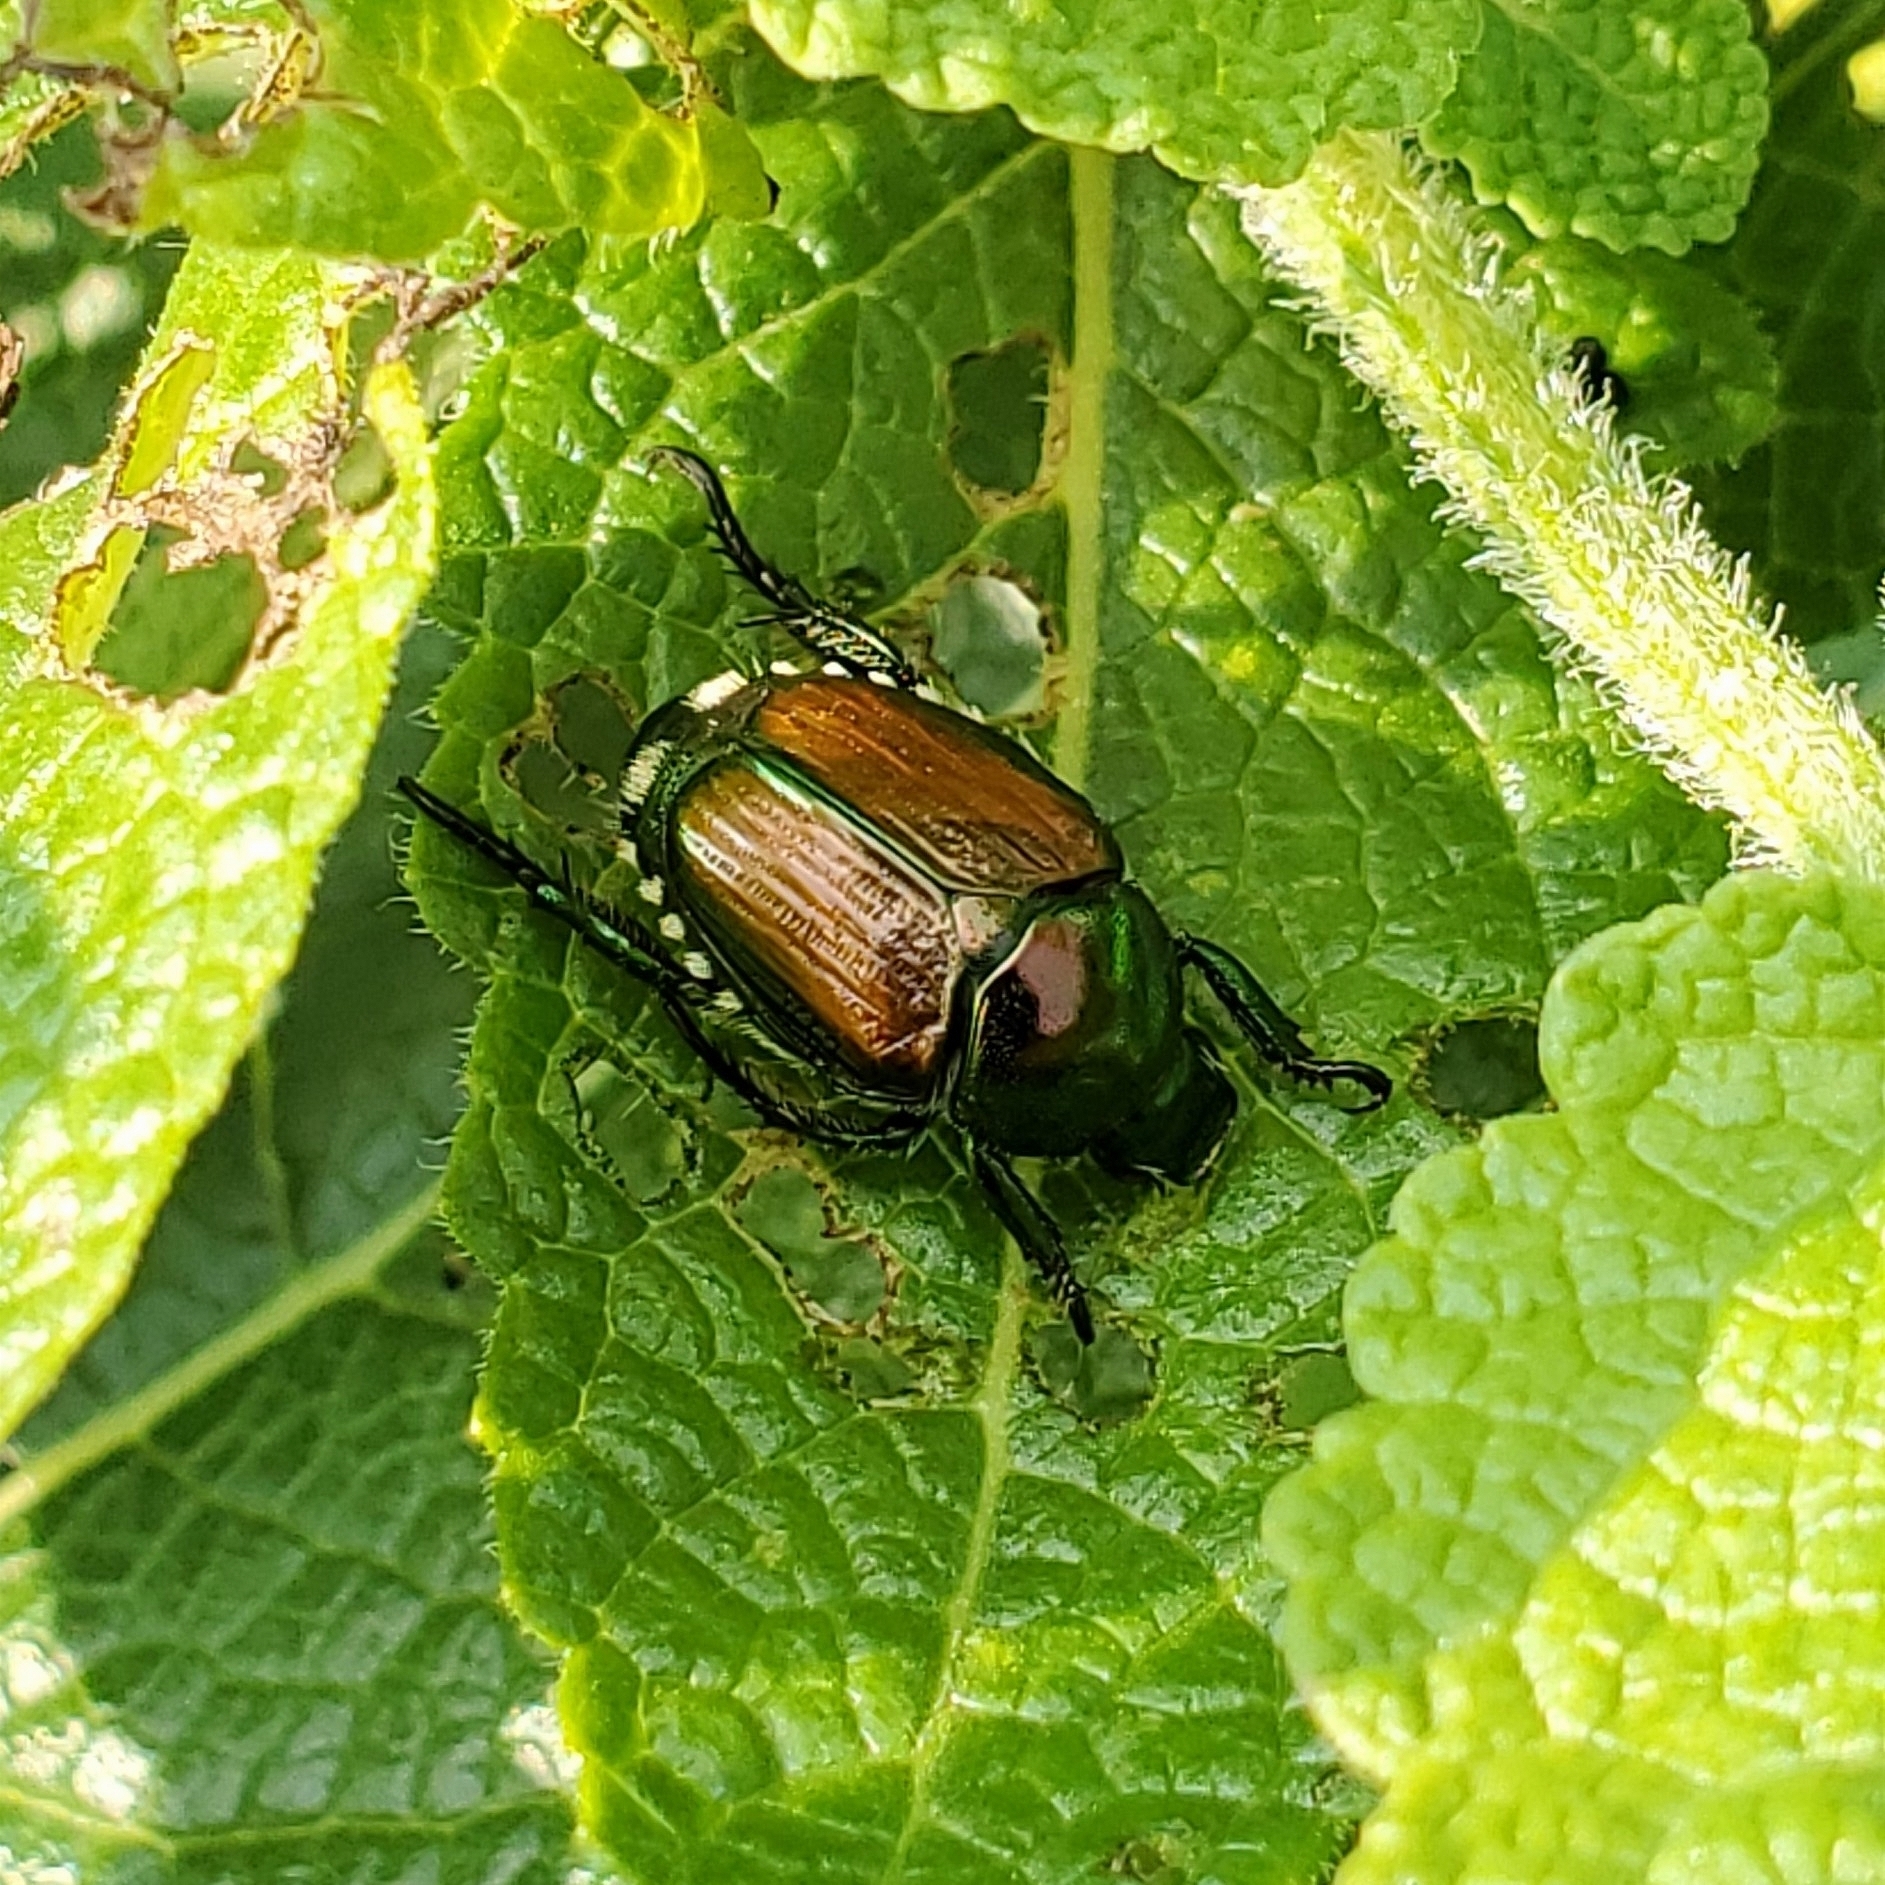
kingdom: Animalia
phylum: Arthropoda
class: Insecta
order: Coleoptera
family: Scarabaeidae
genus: Popillia
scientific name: Popillia japonica
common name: Japanese beetle
